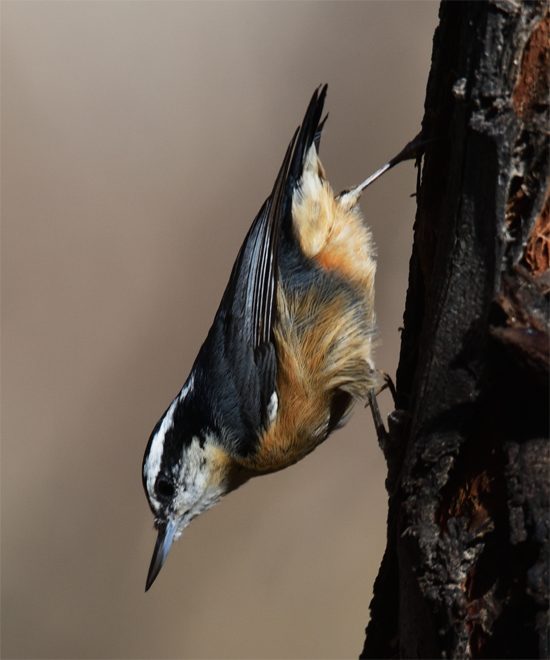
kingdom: Animalia
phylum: Chordata
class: Aves
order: Passeriformes
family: Sittidae
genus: Sitta
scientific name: Sitta canadensis
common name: Red-breasted nuthatch
